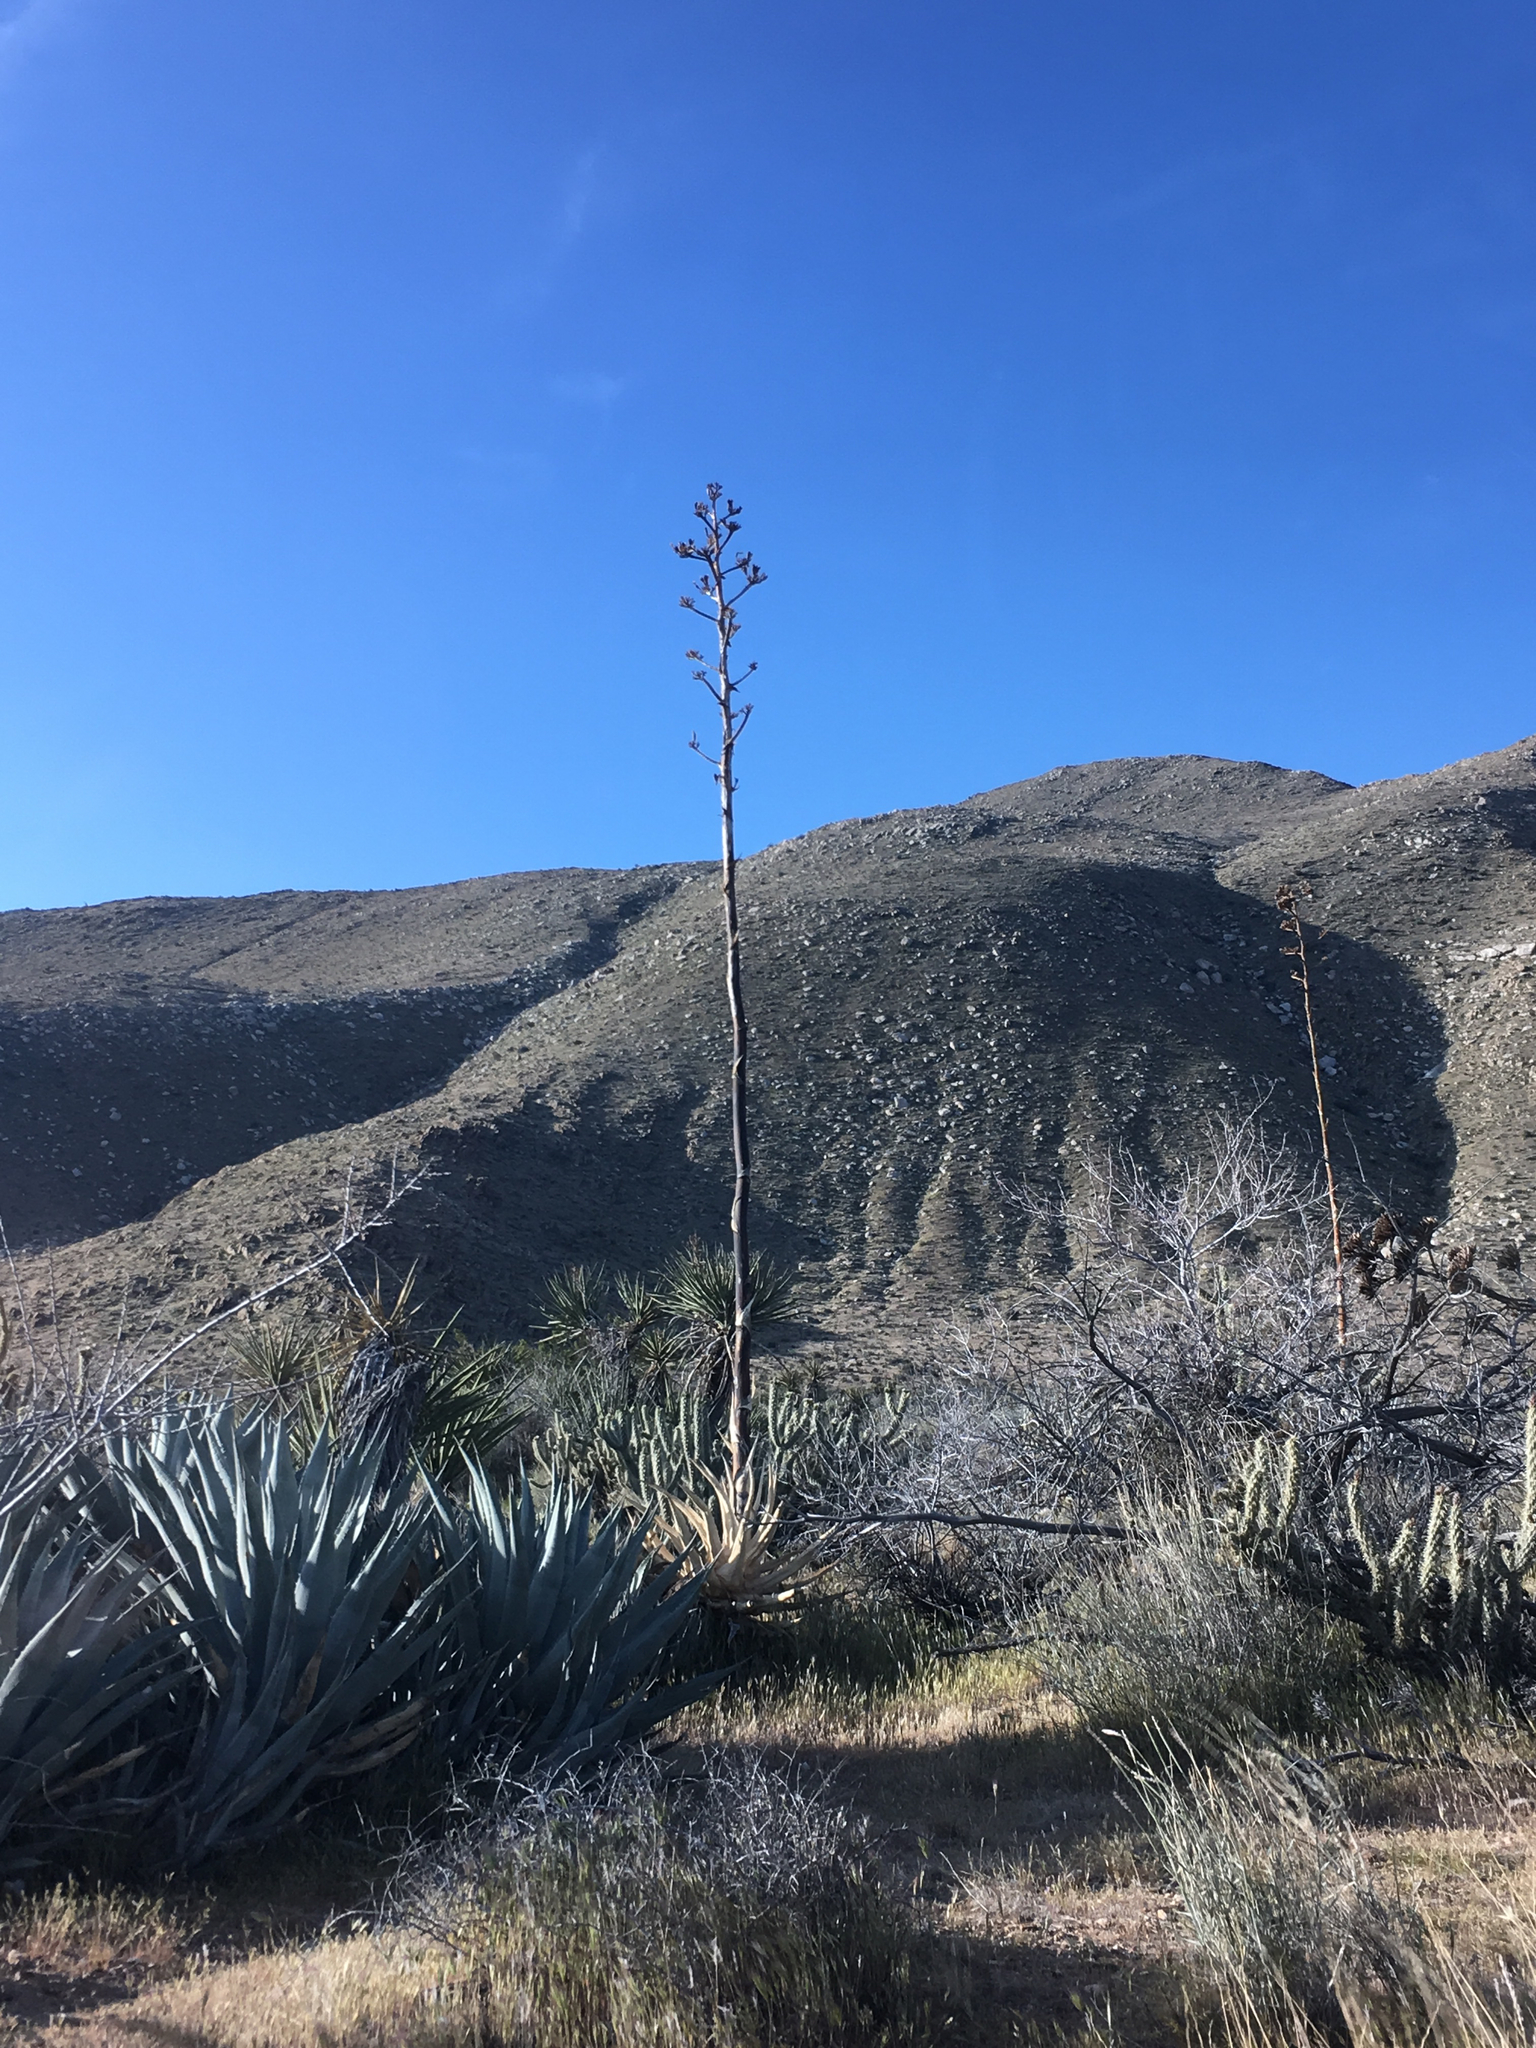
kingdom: Plantae
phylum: Tracheophyta
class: Liliopsida
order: Asparagales
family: Asparagaceae
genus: Agave
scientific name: Agave deserti
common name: Desert agave
